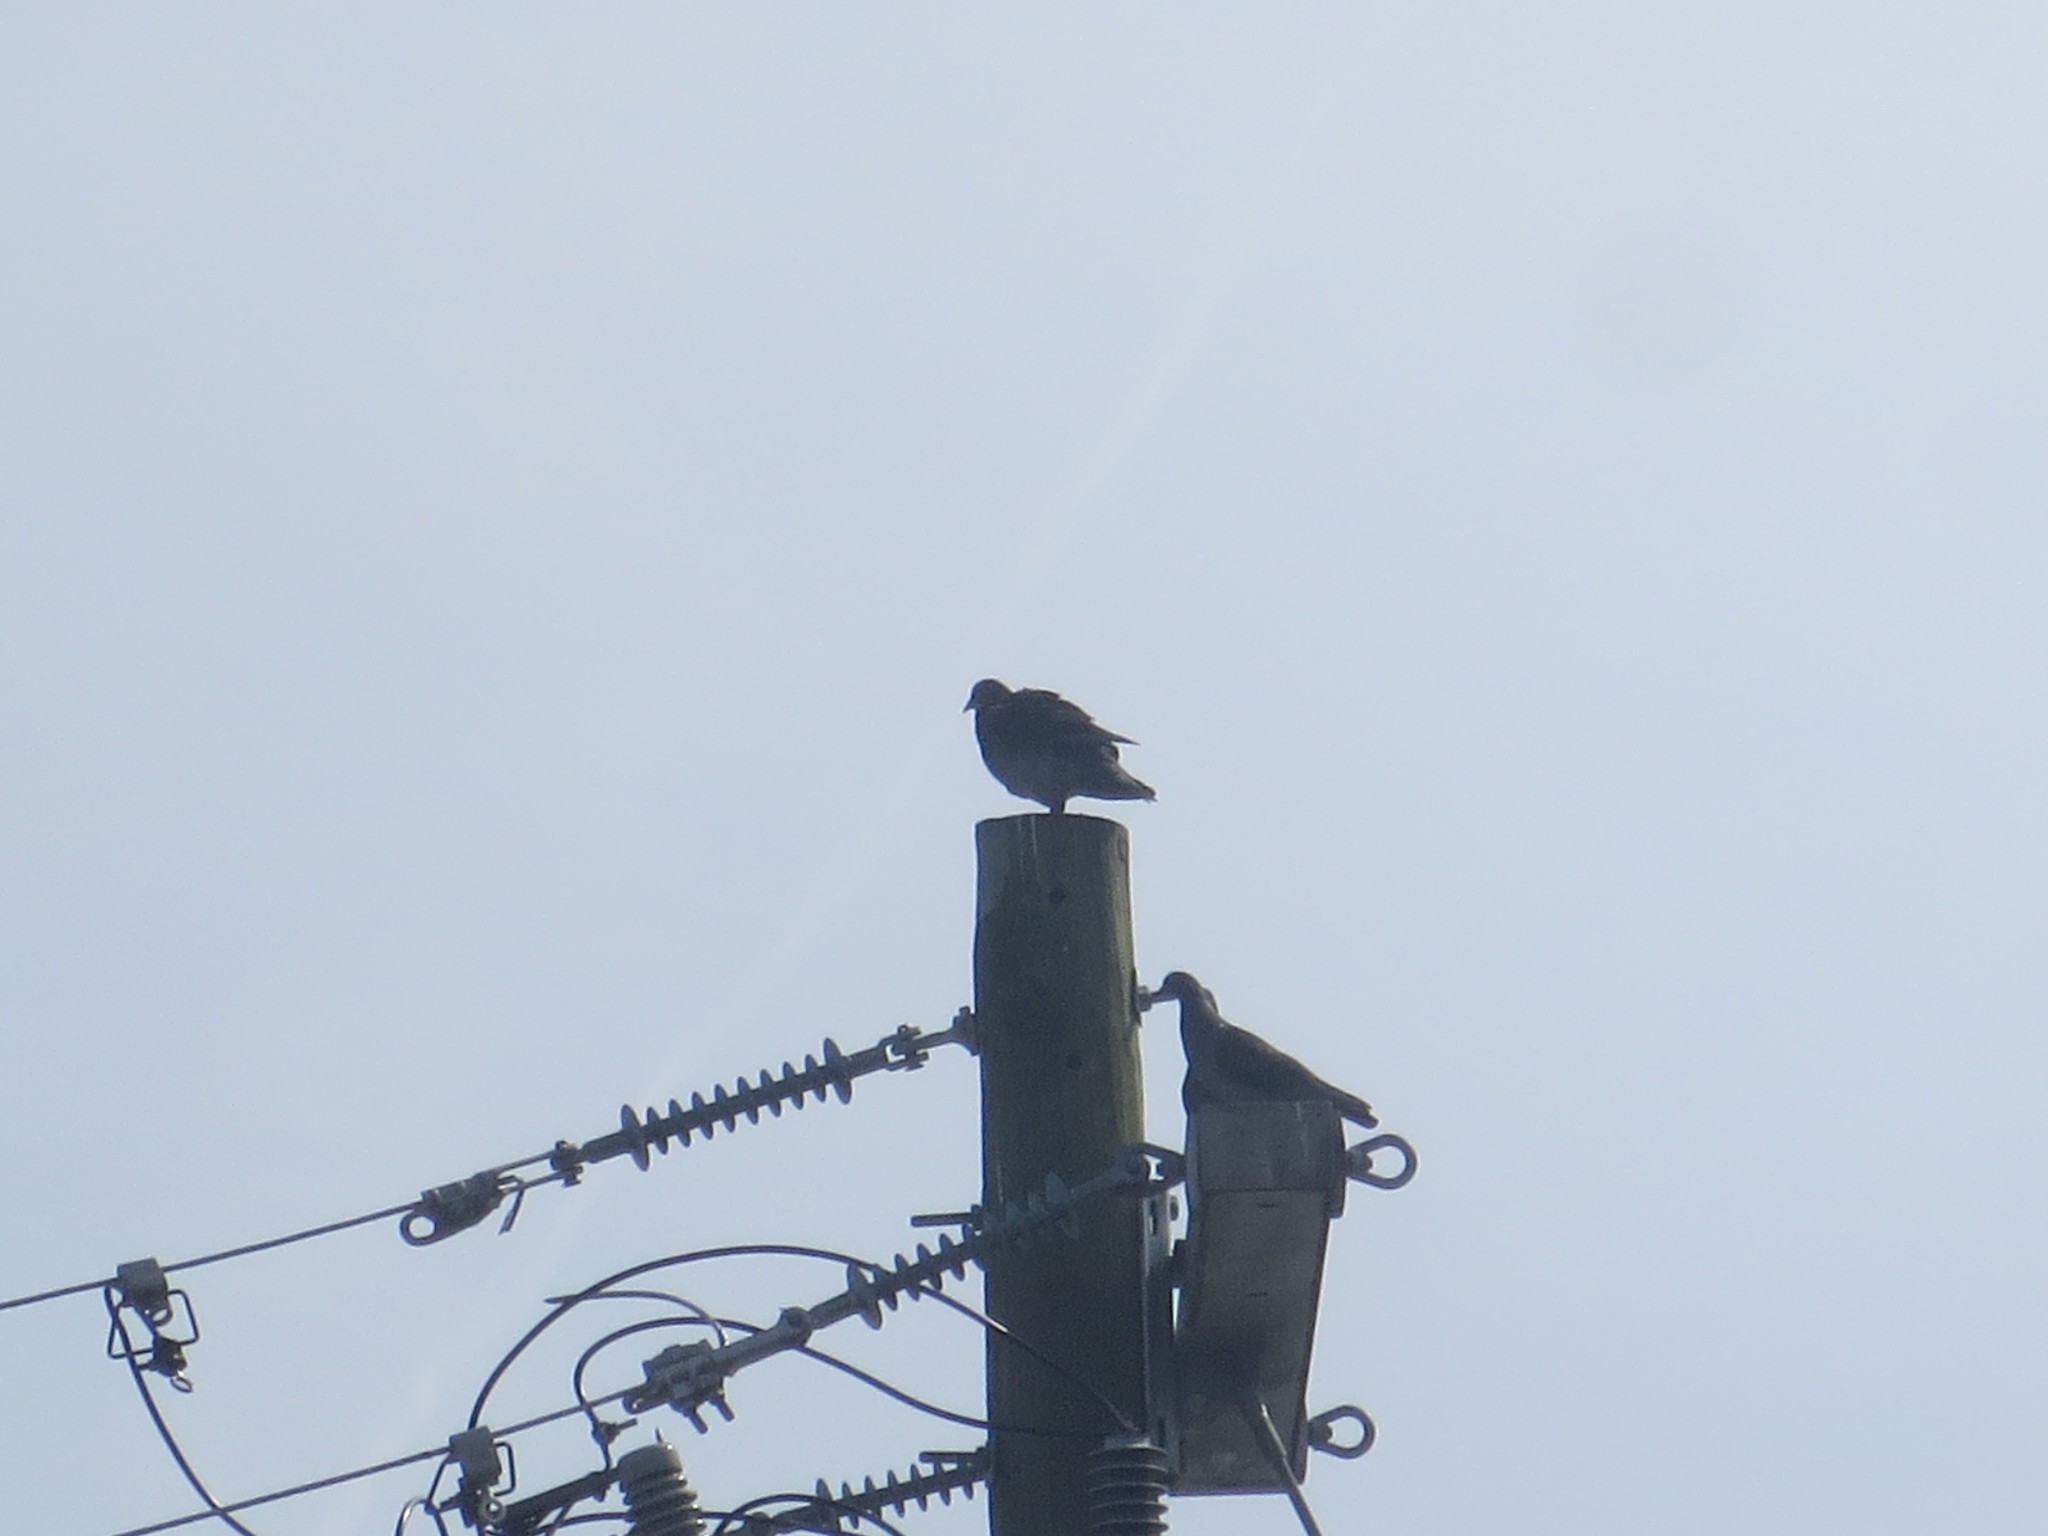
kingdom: Animalia
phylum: Chordata
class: Aves
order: Columbiformes
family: Columbidae
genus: Columba
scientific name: Columba livia
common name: Rock pigeon
